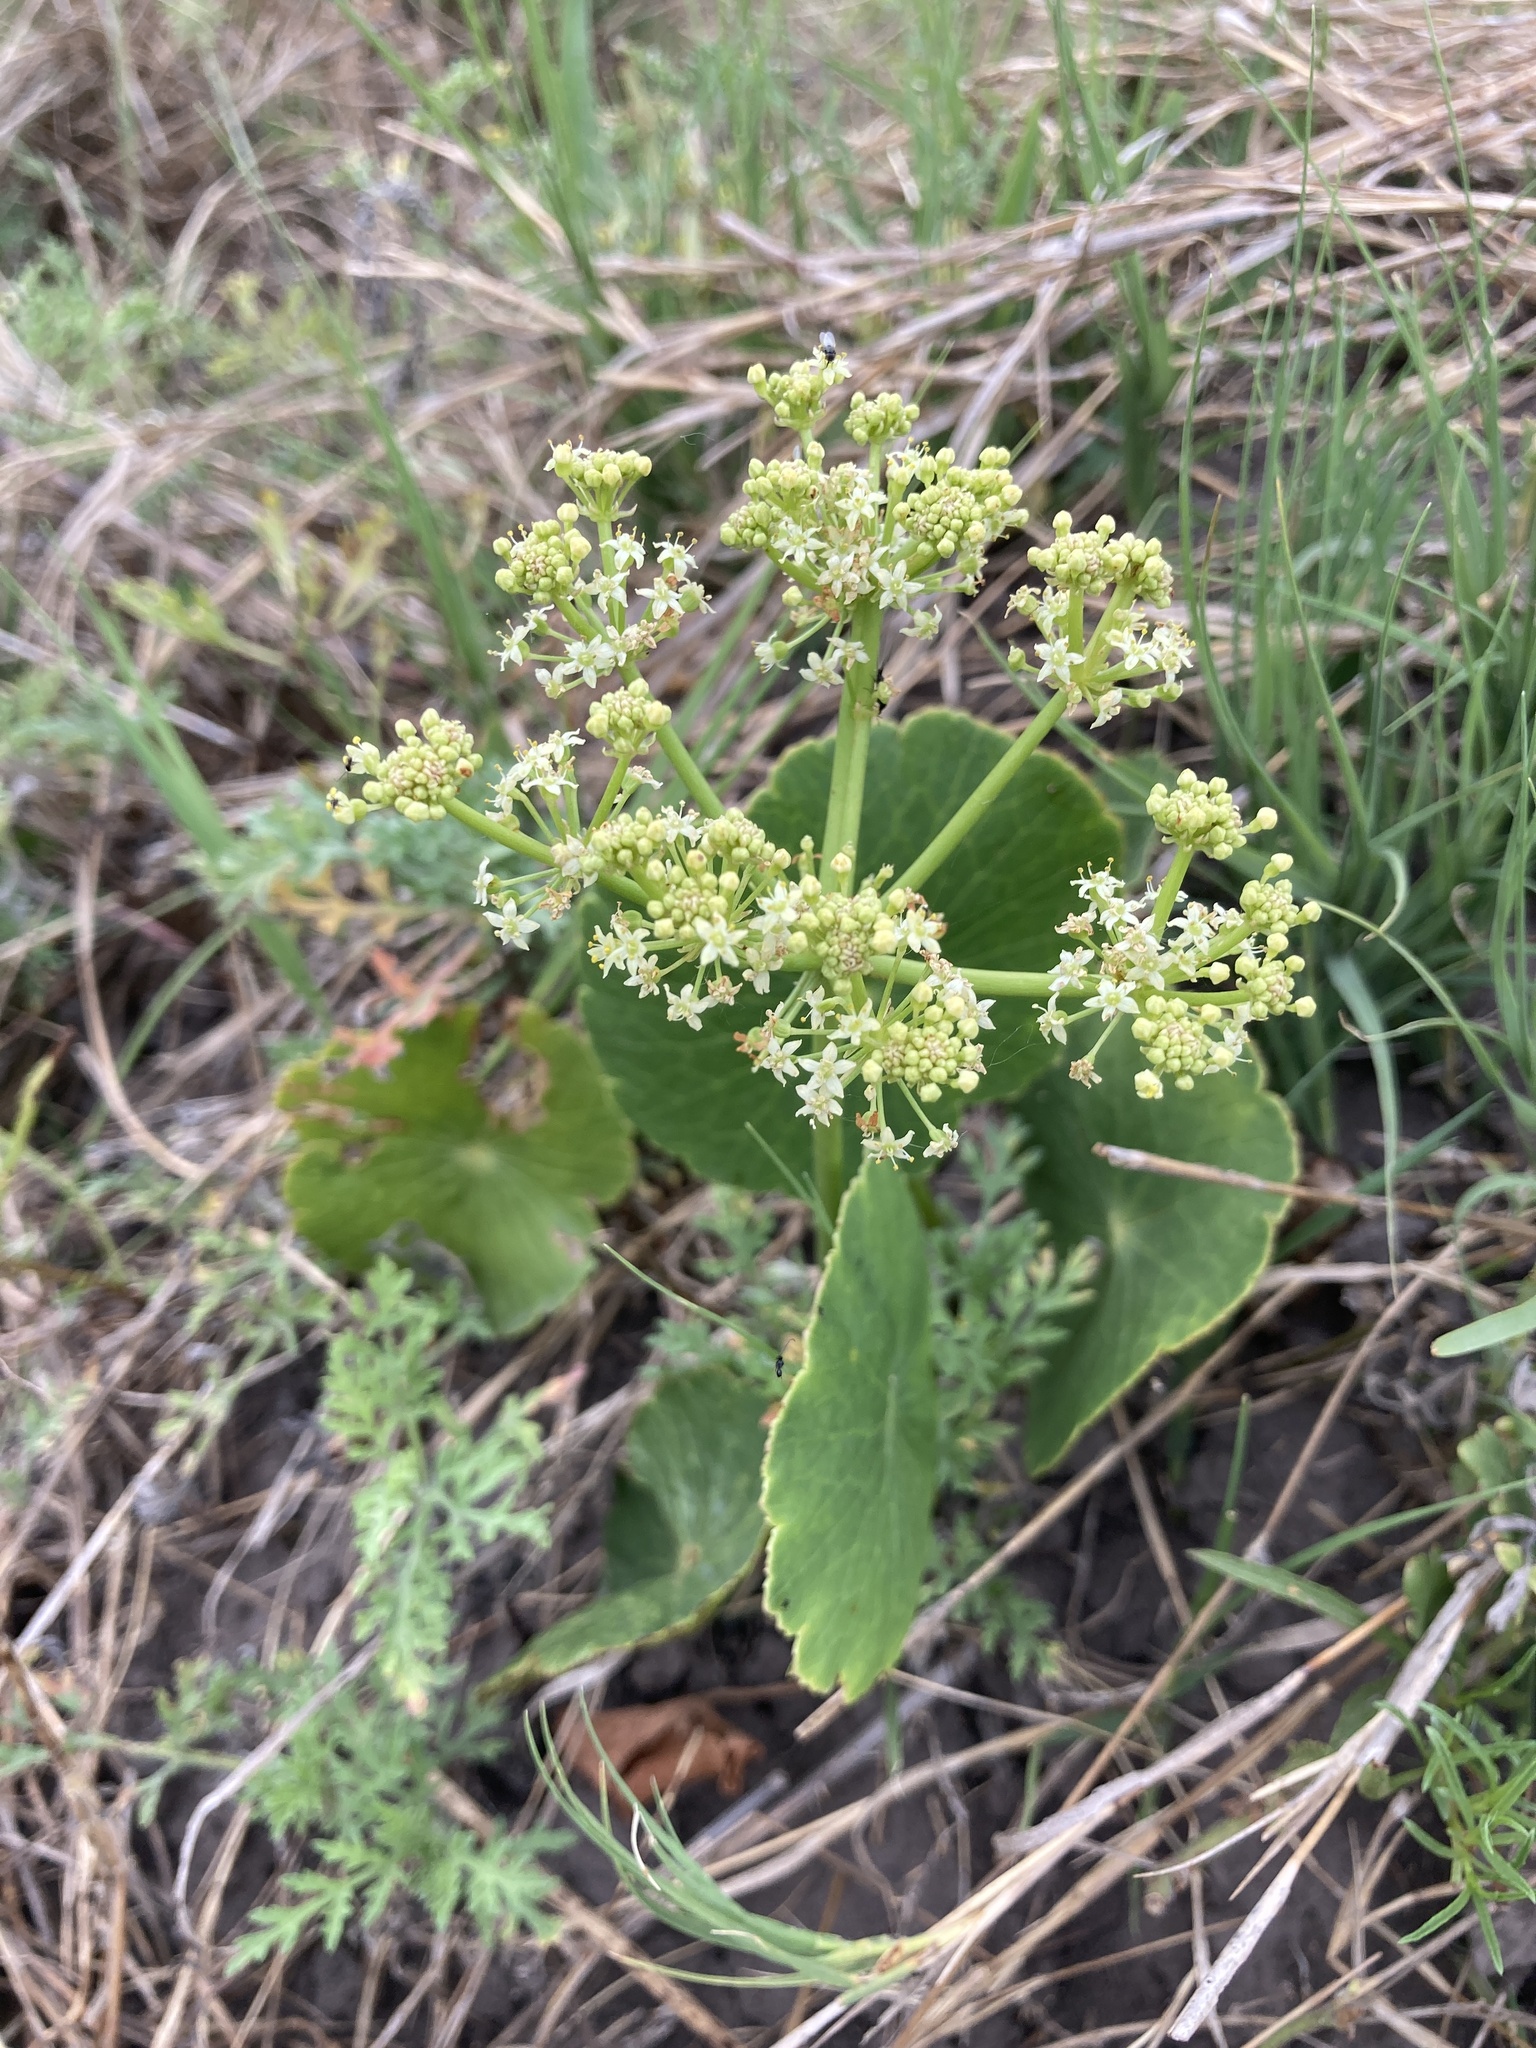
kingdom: Plantae
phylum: Tracheophyta
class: Magnoliopsida
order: Apiales
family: Araliaceae
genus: Hydrocotyle
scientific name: Hydrocotyle bonariensis
